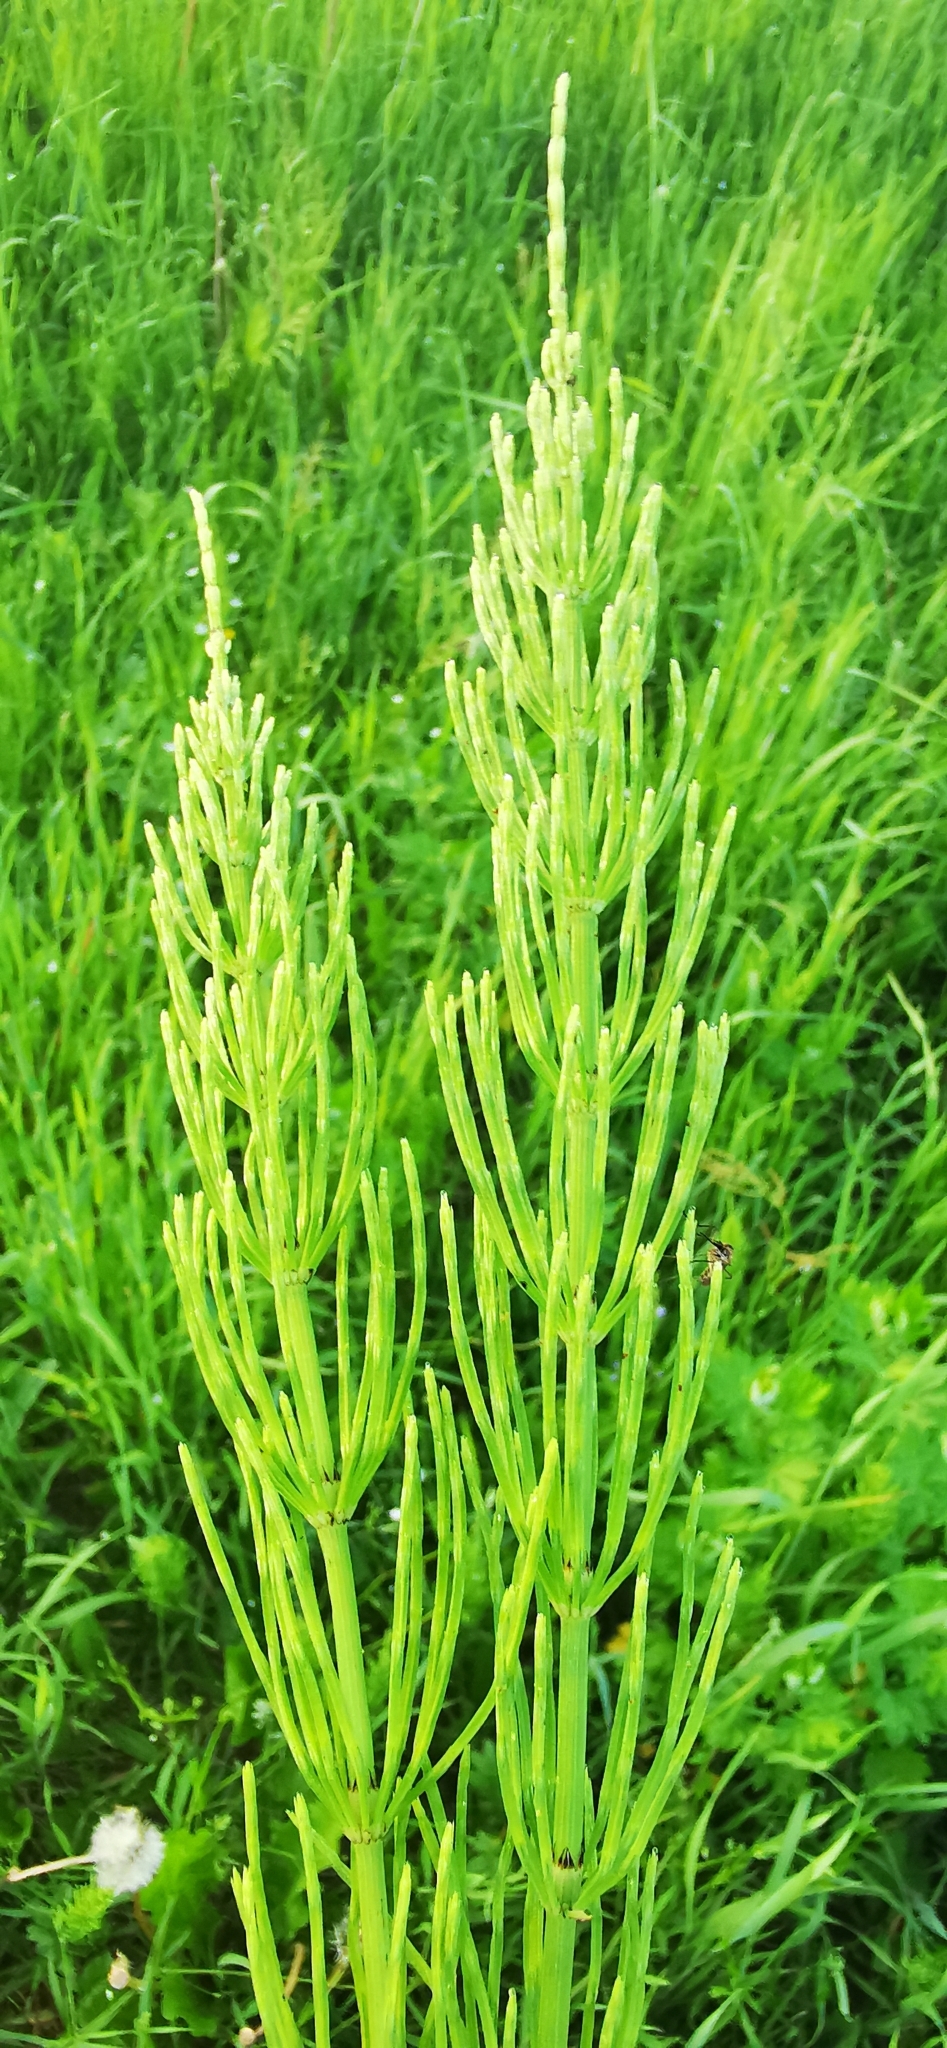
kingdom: Plantae
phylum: Tracheophyta
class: Polypodiopsida
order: Equisetales
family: Equisetaceae
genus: Equisetum
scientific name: Equisetum arvense
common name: Field horsetail
